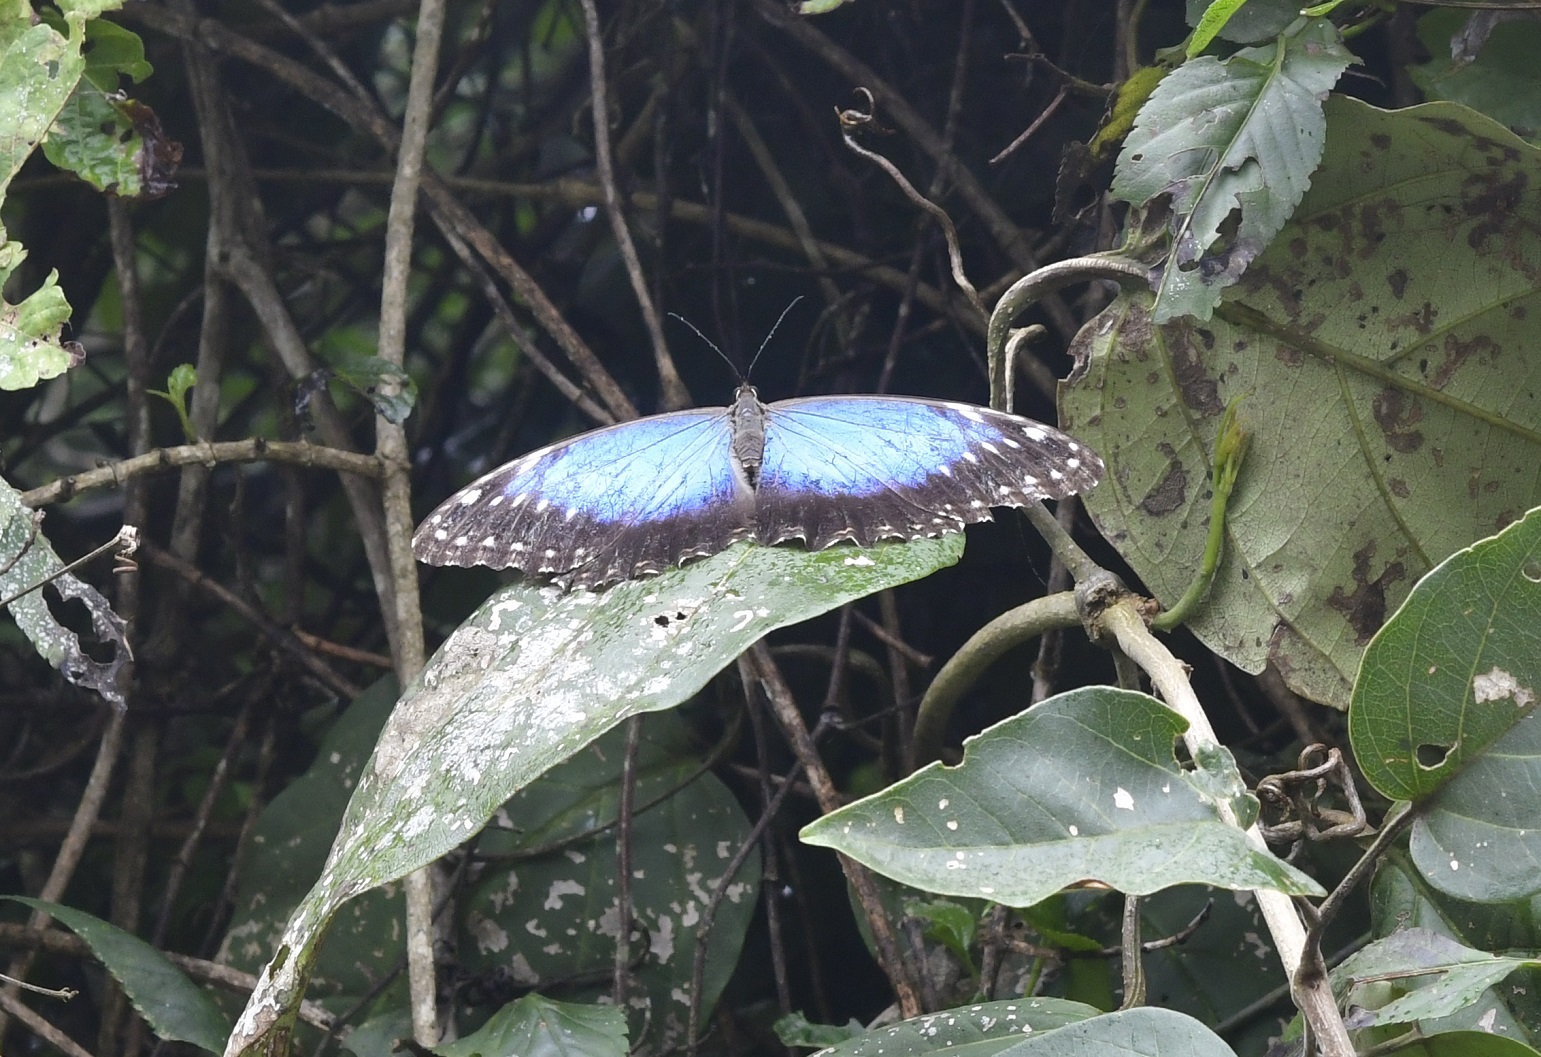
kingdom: Animalia
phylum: Arthropoda
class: Insecta
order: Lepidoptera
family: Nymphalidae
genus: Morpho
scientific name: Morpho helenor
